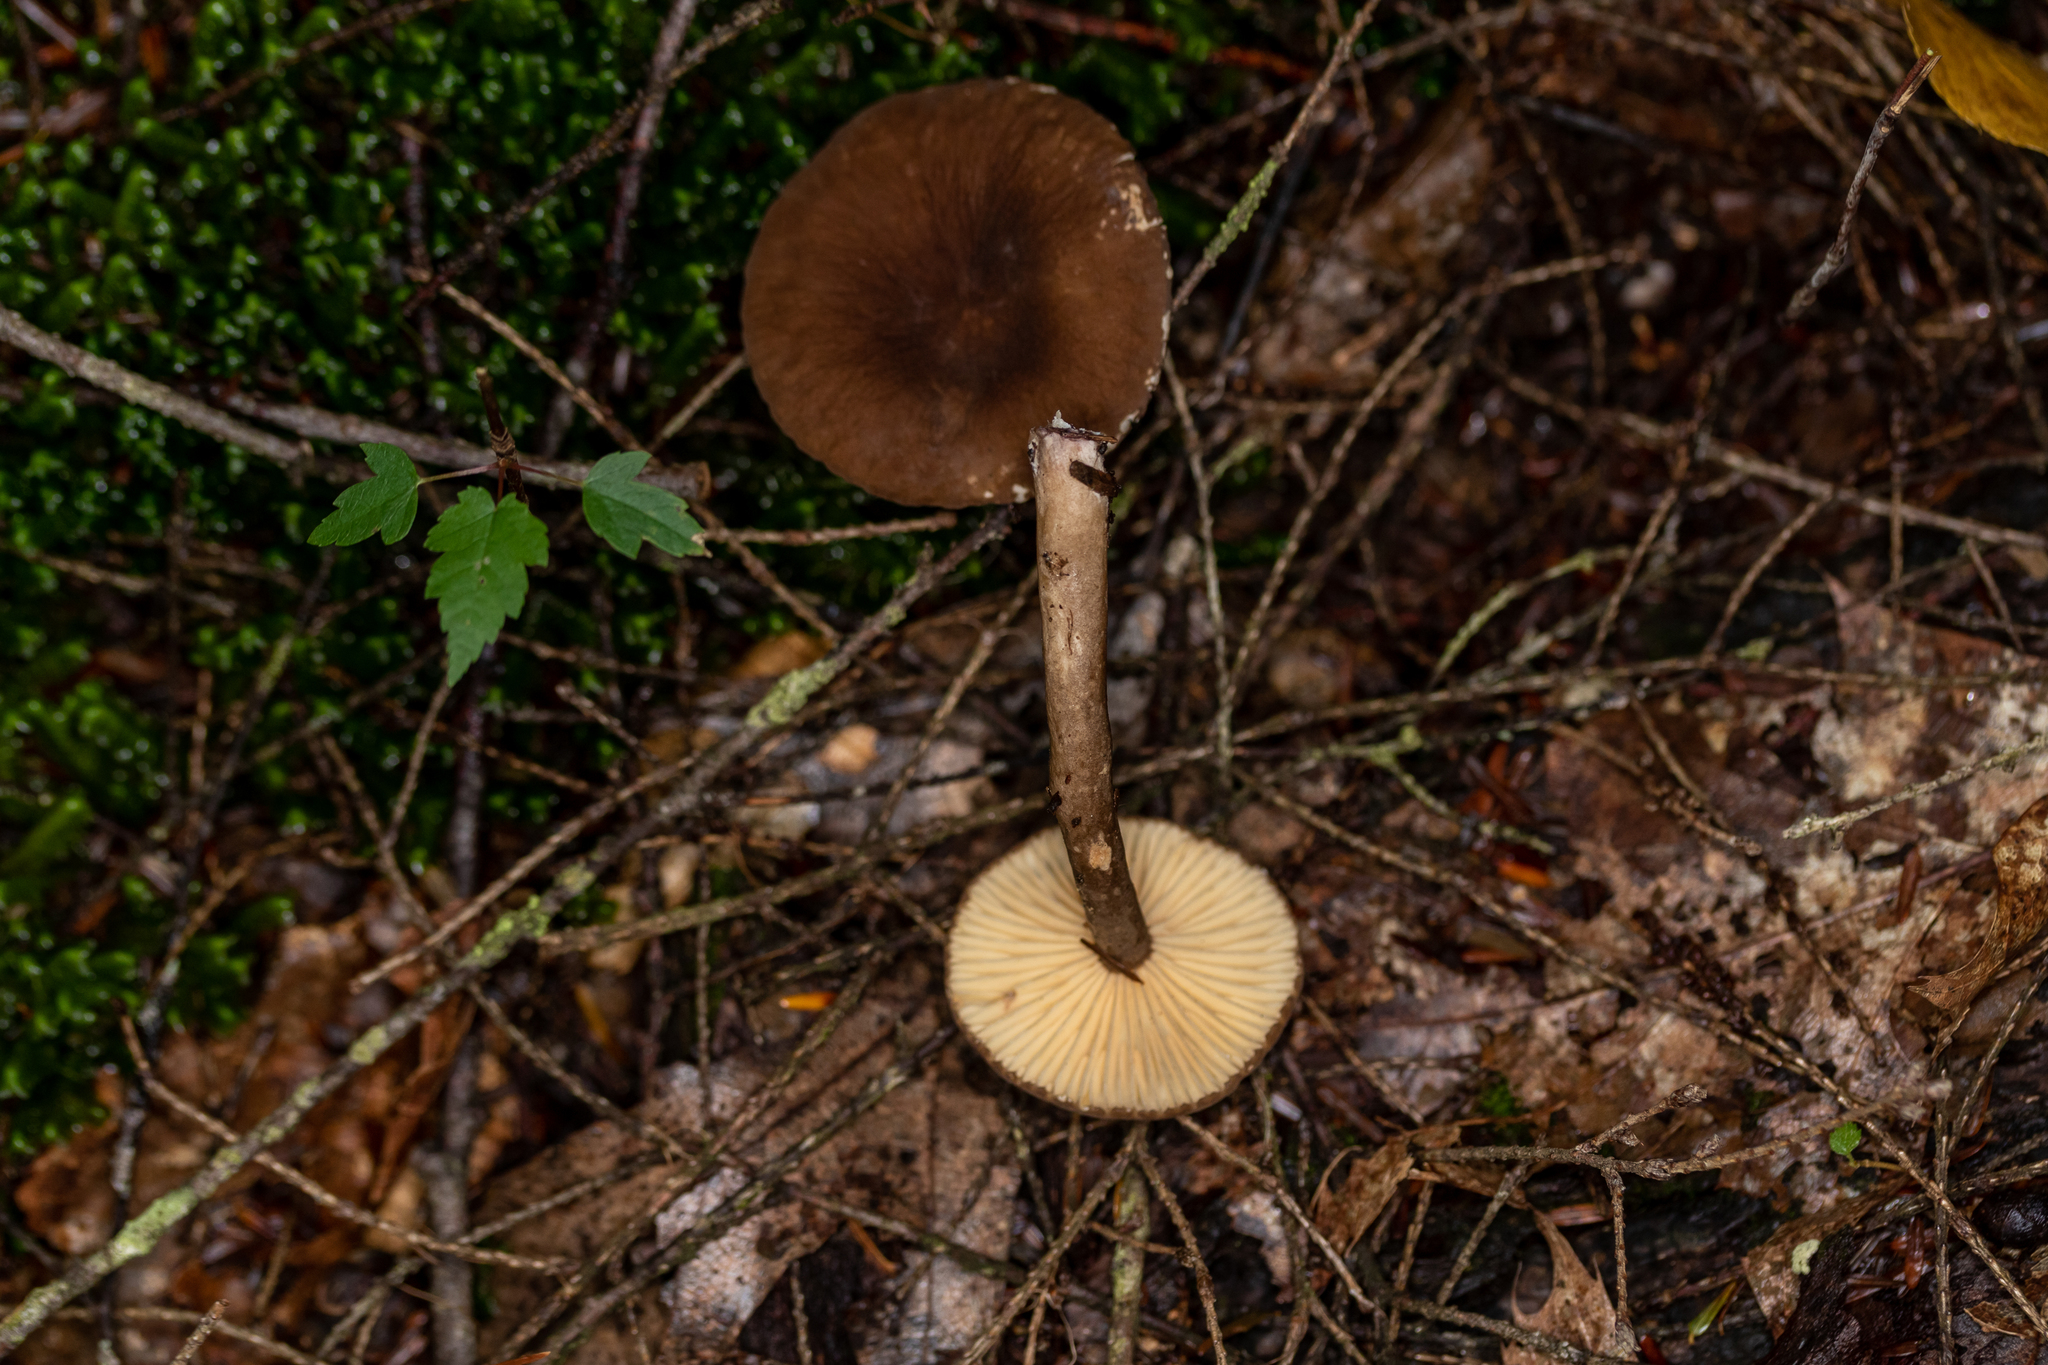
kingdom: Fungi
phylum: Basidiomycota
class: Agaricomycetes
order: Russulales
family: Russulaceae
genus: Lactarius
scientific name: Lactarius lignyotus
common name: Velvet milkcap
